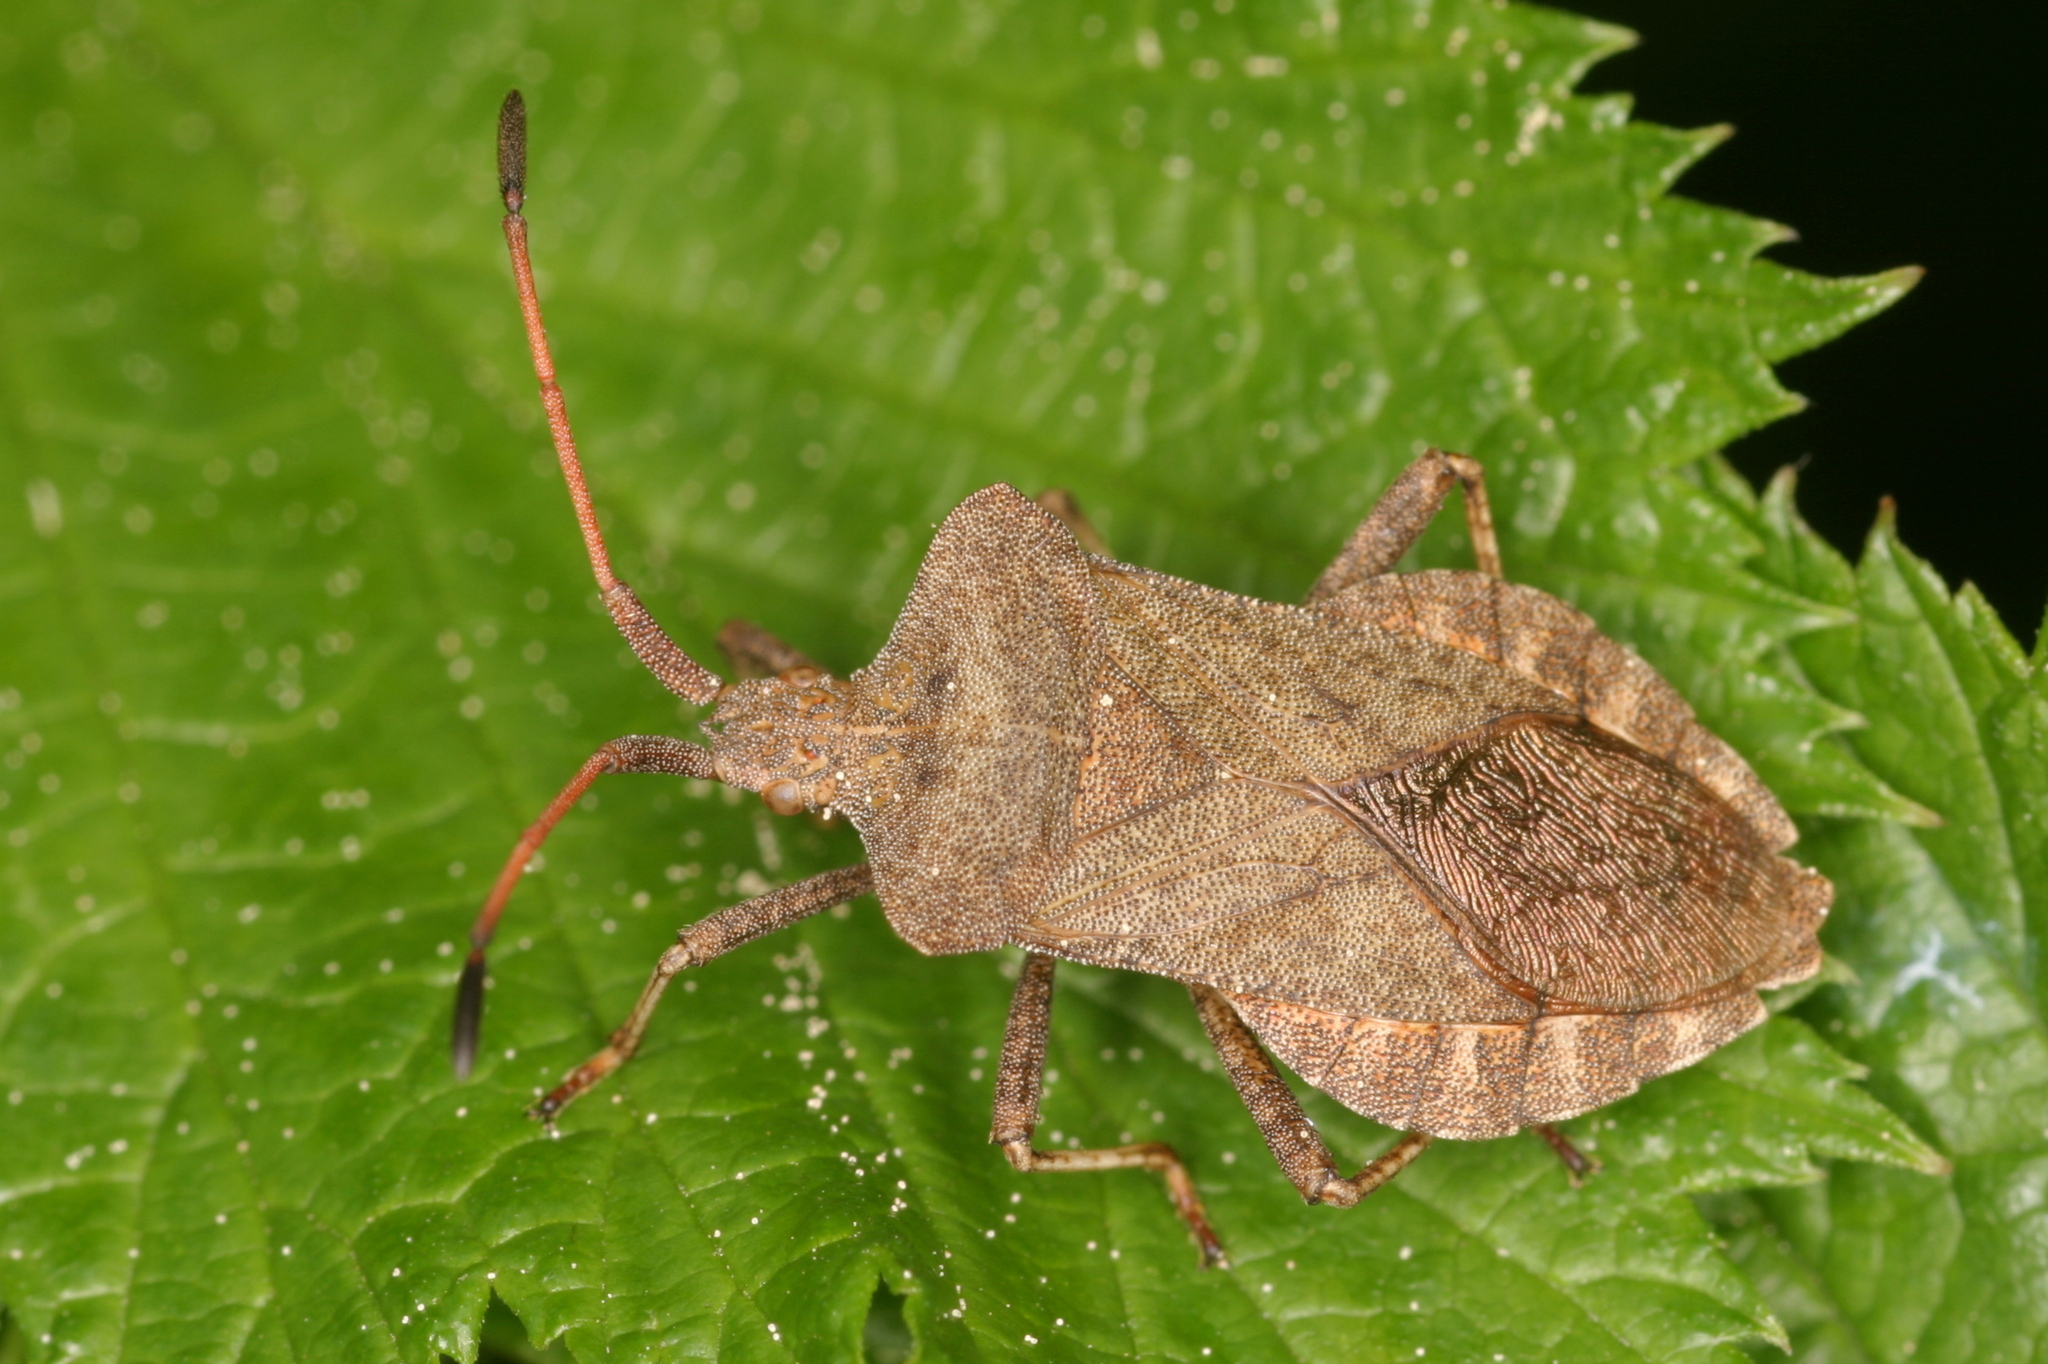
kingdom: Animalia
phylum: Arthropoda
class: Insecta
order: Hemiptera
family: Coreidae
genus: Coreus
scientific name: Coreus marginatus
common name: Dock bug
